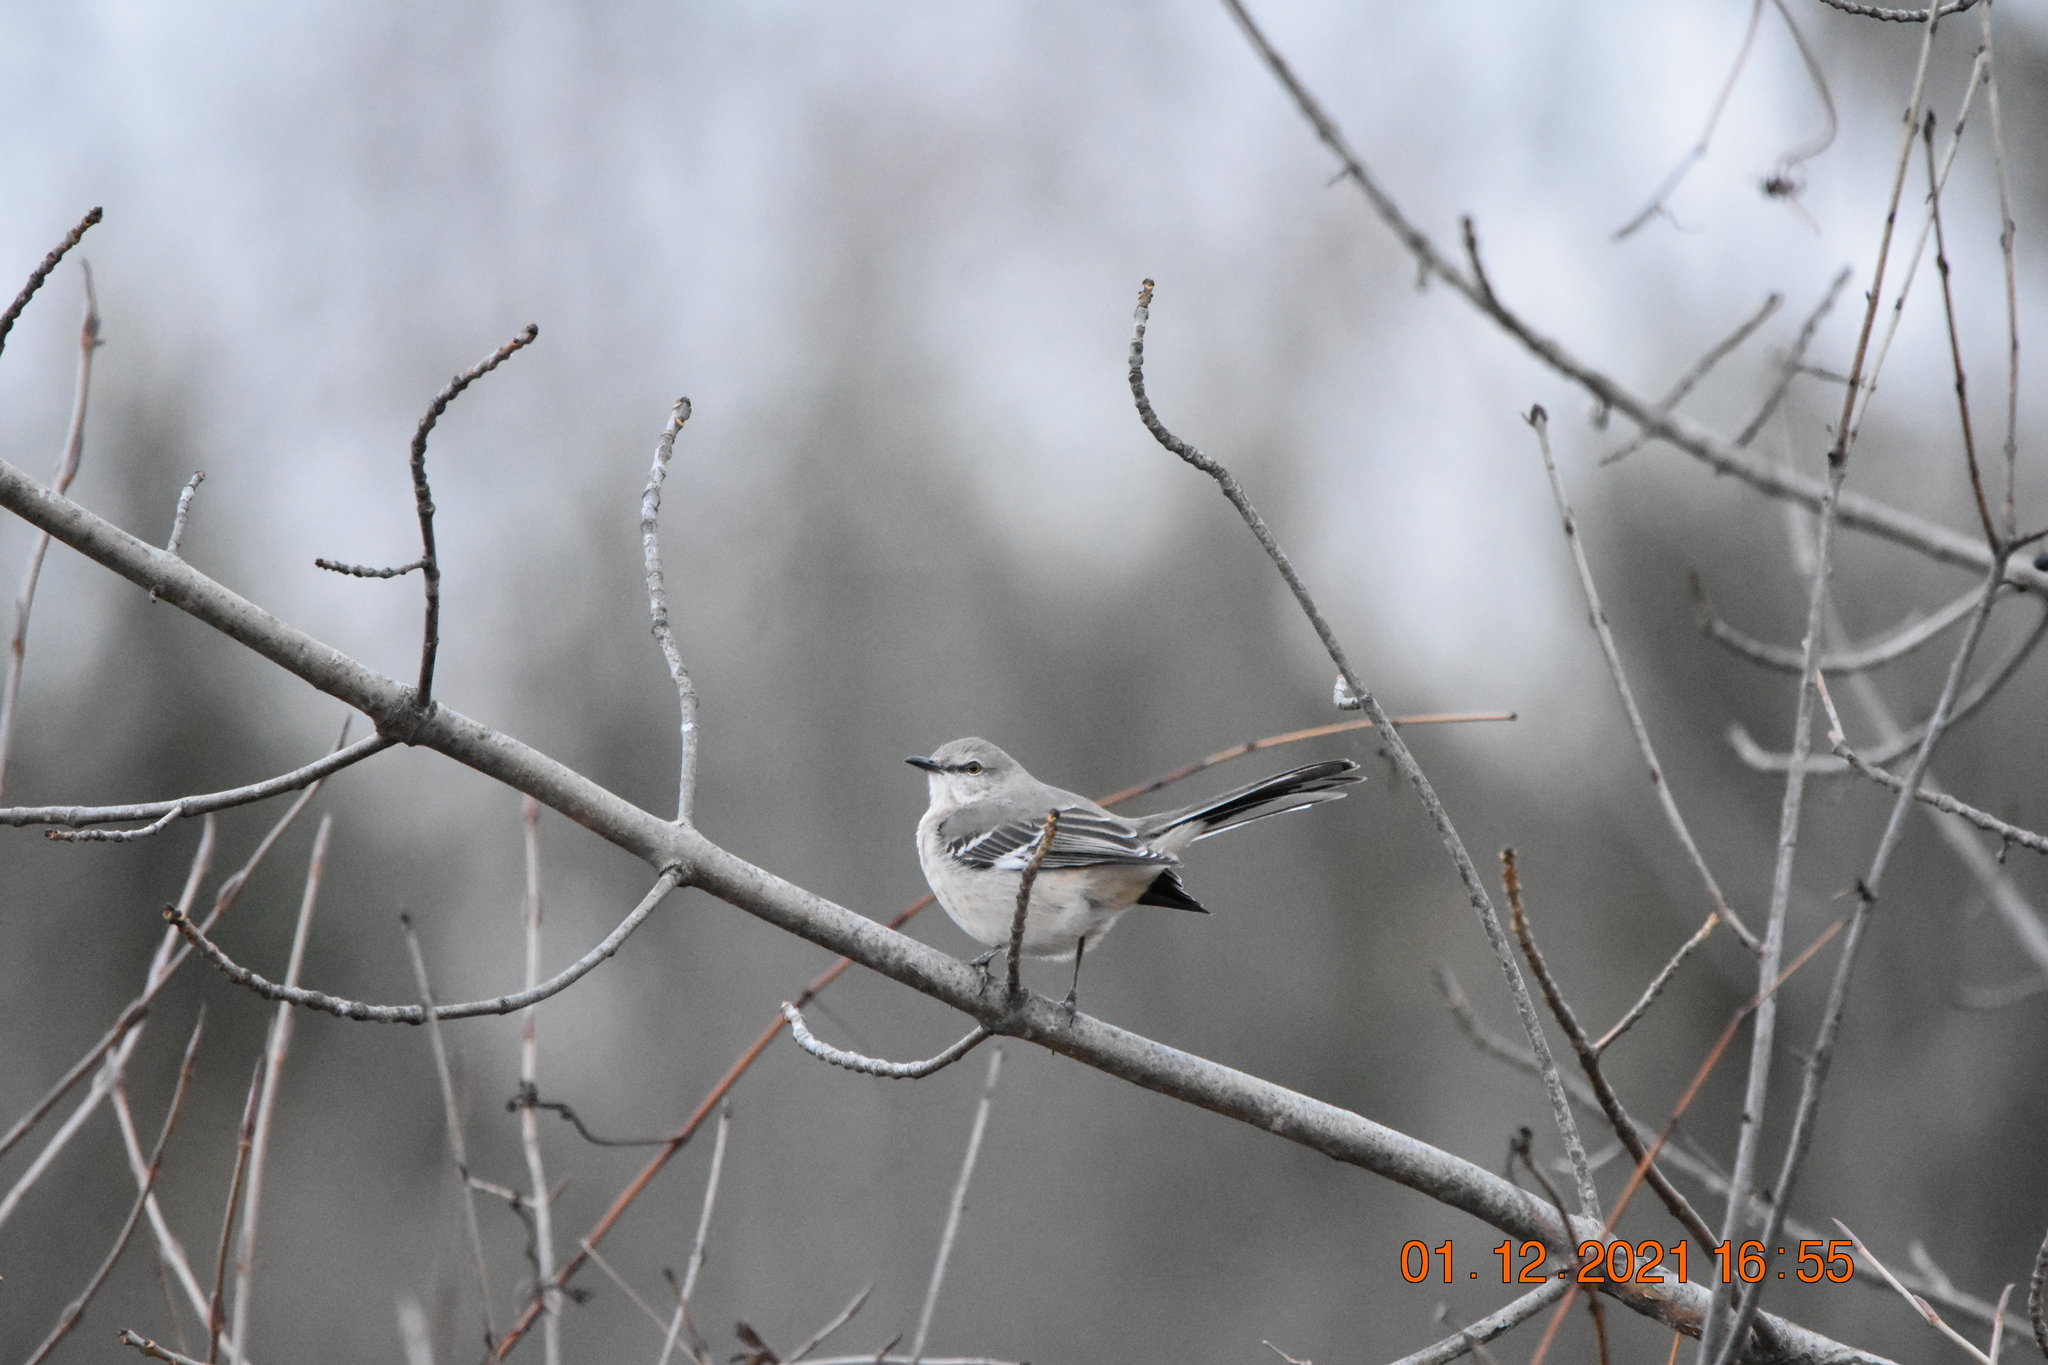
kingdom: Animalia
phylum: Chordata
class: Aves
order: Passeriformes
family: Mimidae
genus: Mimus
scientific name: Mimus polyglottos
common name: Northern mockingbird
